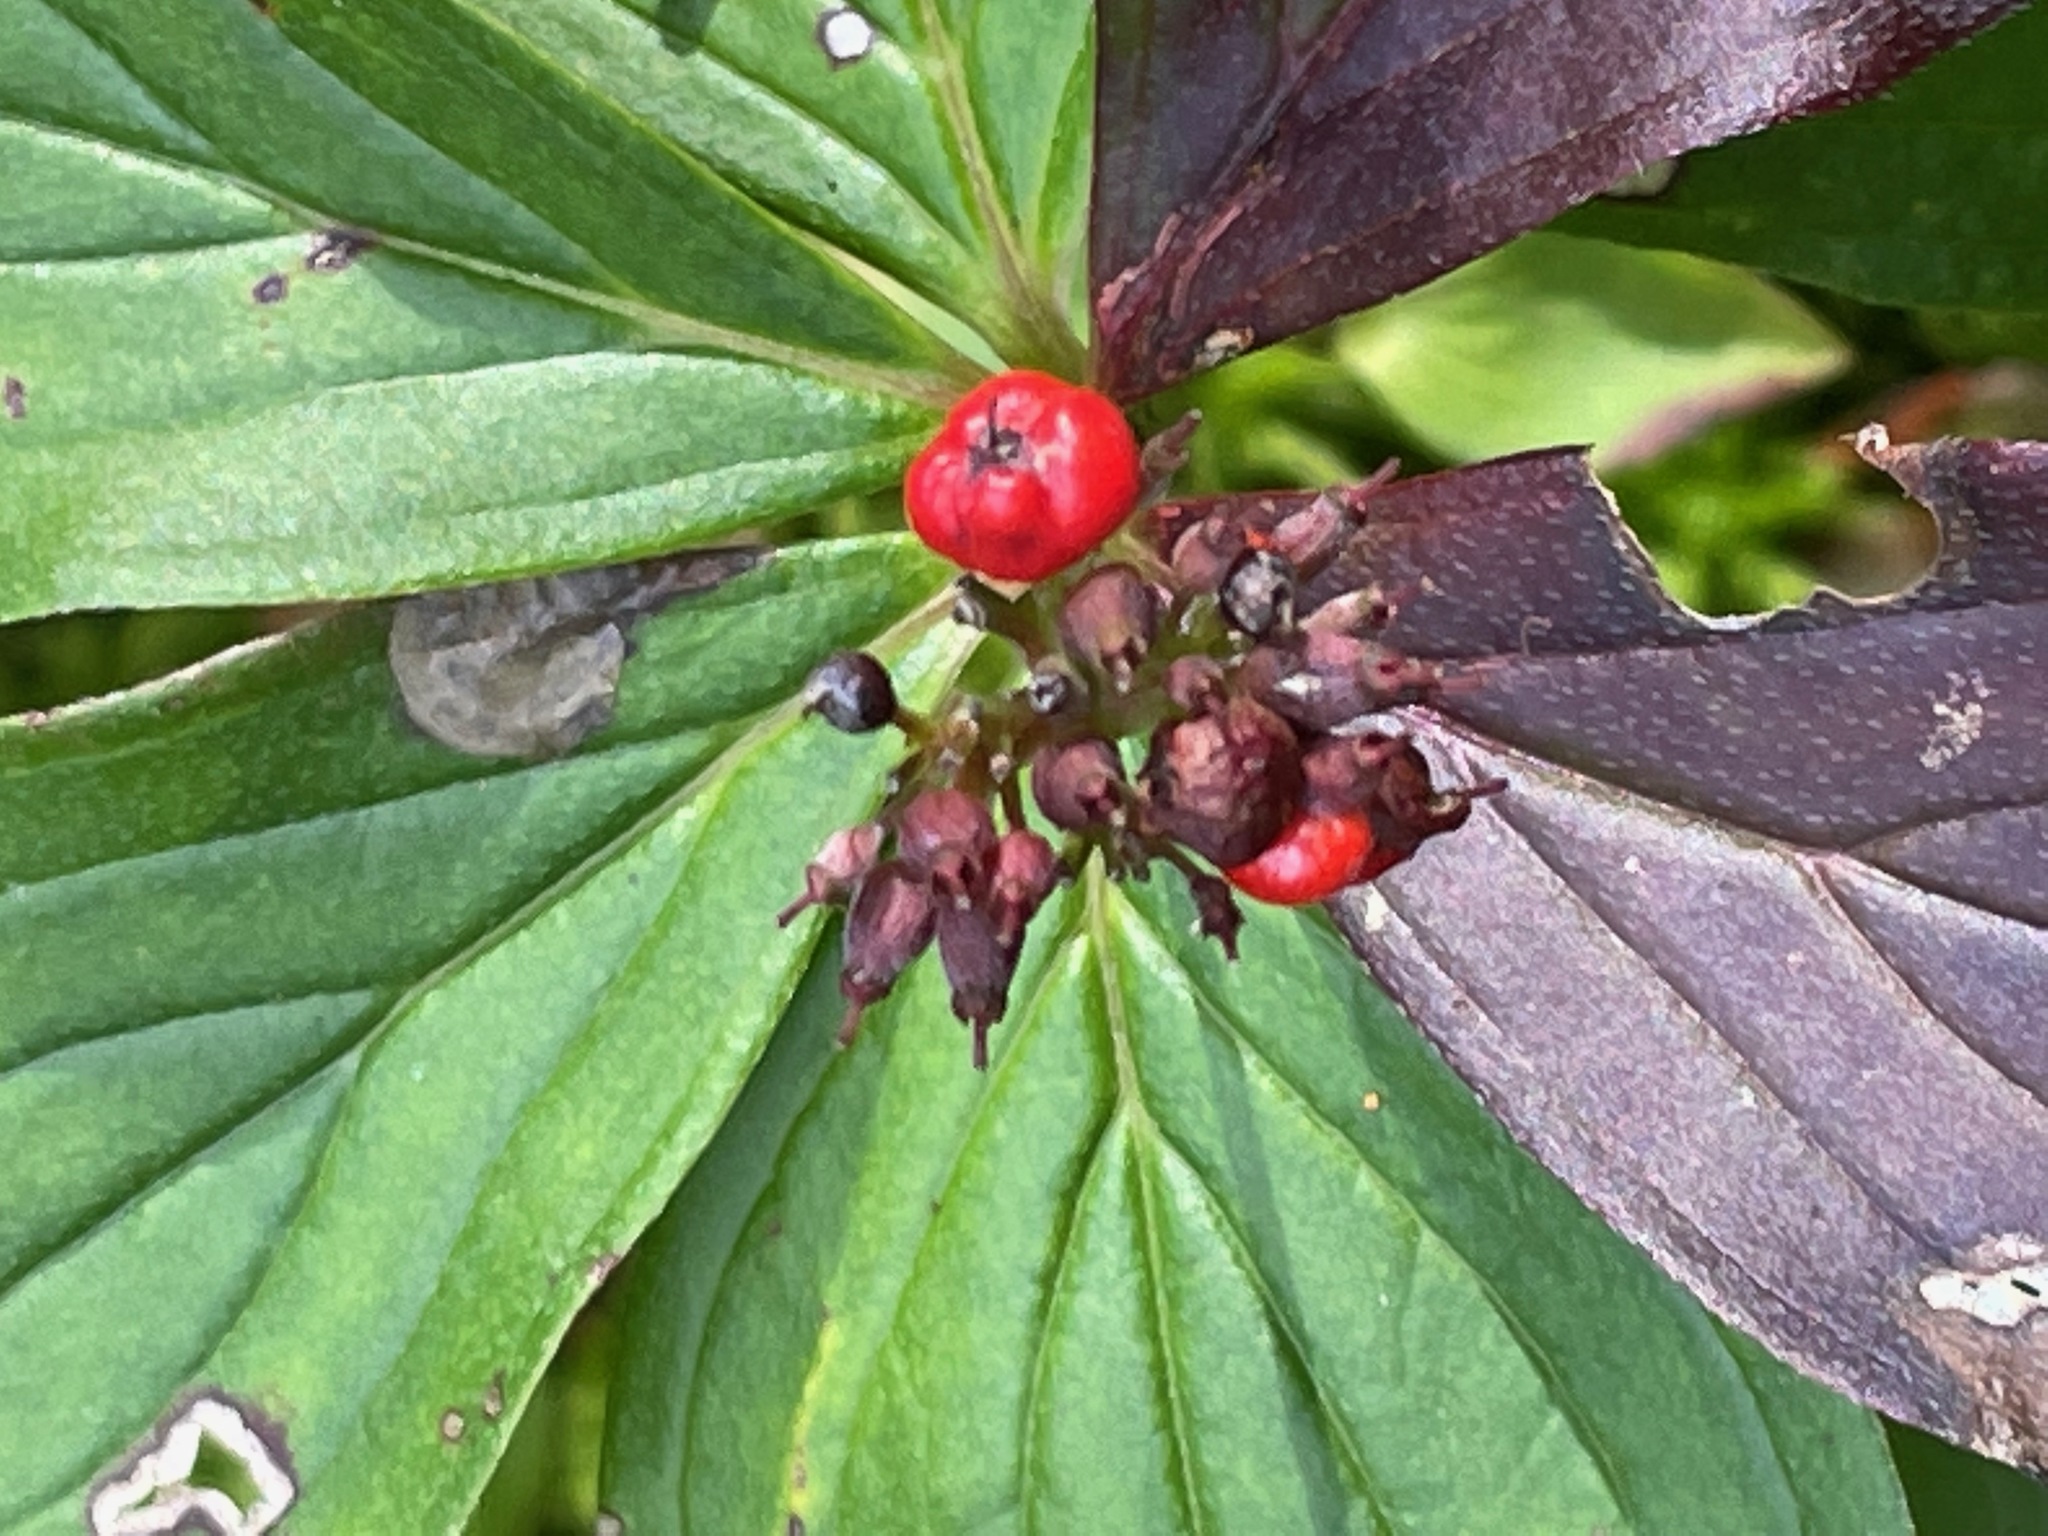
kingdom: Plantae
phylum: Tracheophyta
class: Magnoliopsida
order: Cornales
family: Cornaceae
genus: Cornus
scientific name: Cornus canadensis
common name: Creeping dogwood
